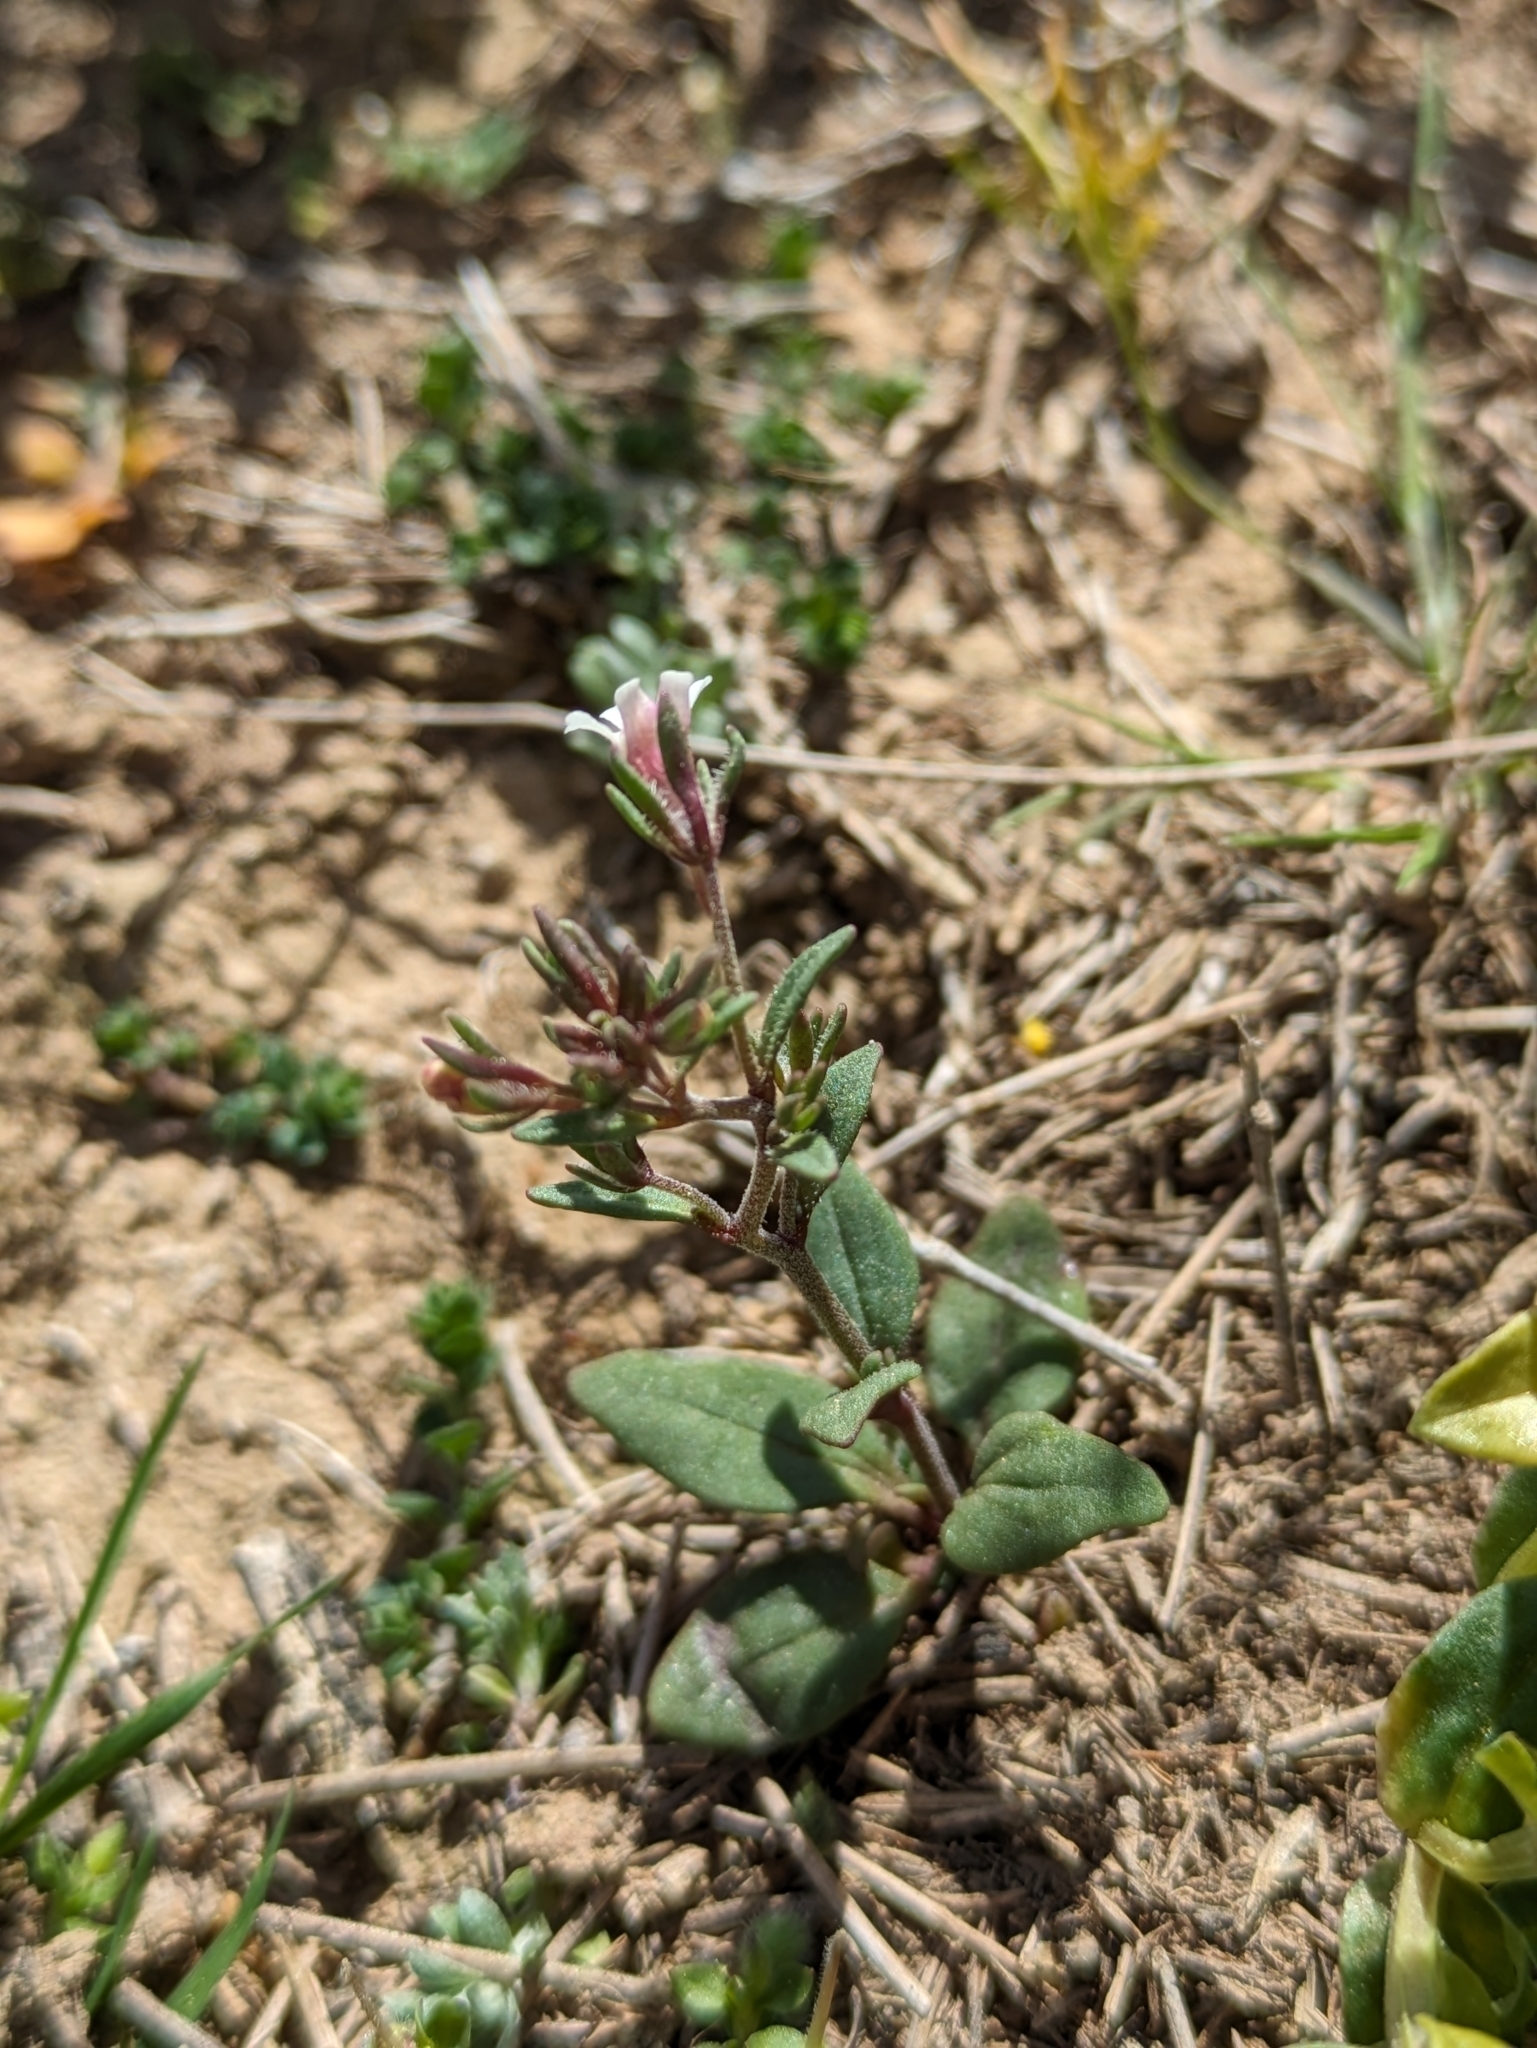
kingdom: Plantae
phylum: Tracheophyta
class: Magnoliopsida
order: Lamiales
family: Plantaginaceae
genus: Chaenorhinum
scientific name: Chaenorhinum rupestre
